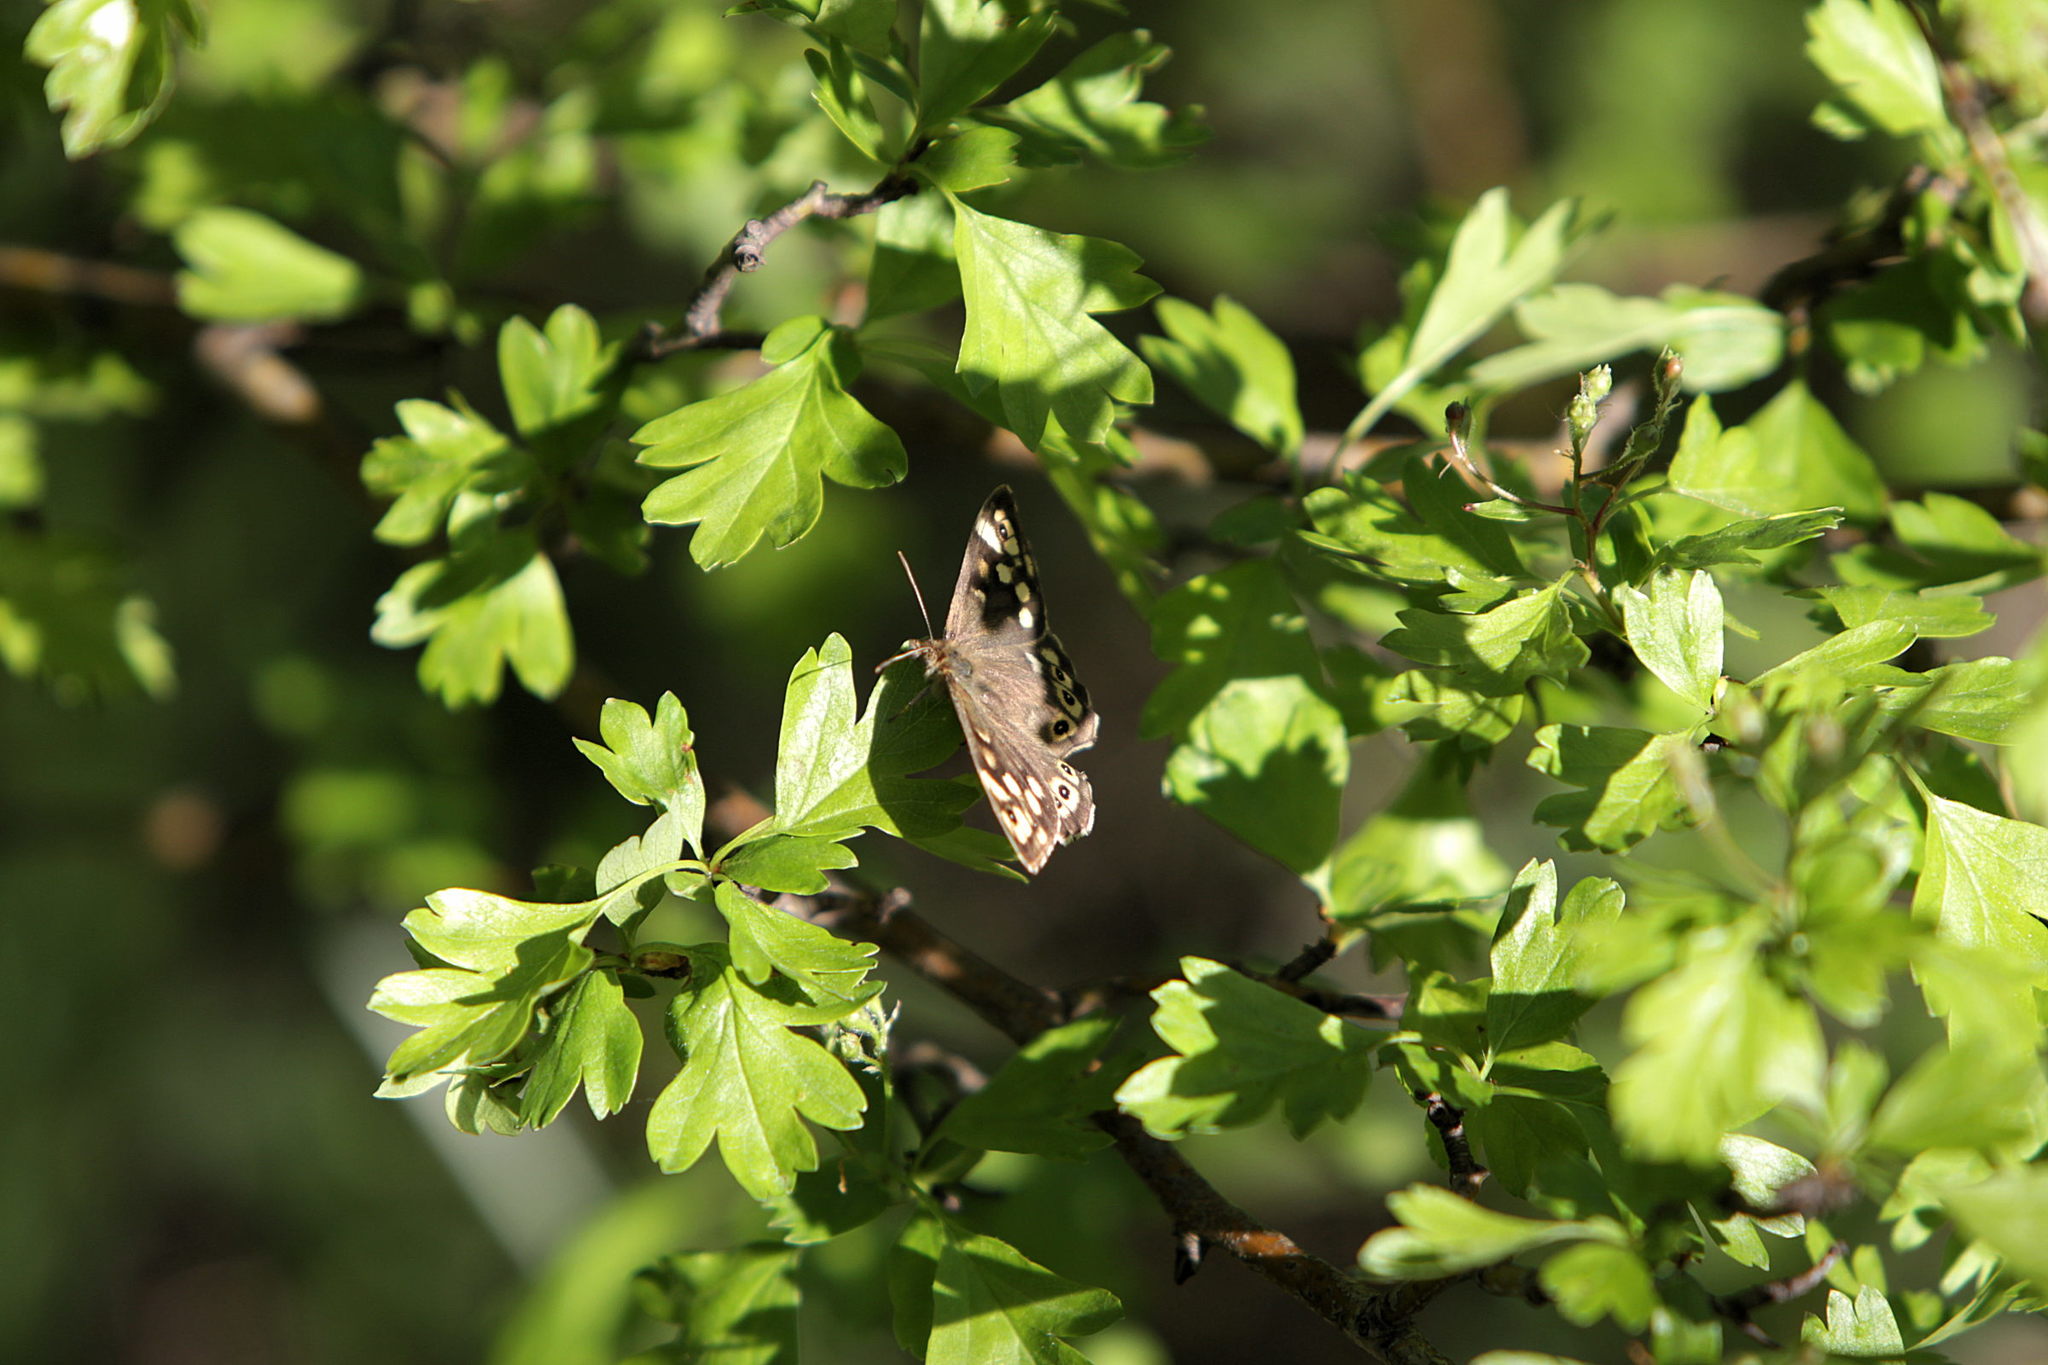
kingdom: Animalia
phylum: Arthropoda
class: Insecta
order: Lepidoptera
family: Nymphalidae
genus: Pararge
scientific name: Pararge aegeria
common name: Speckled wood
